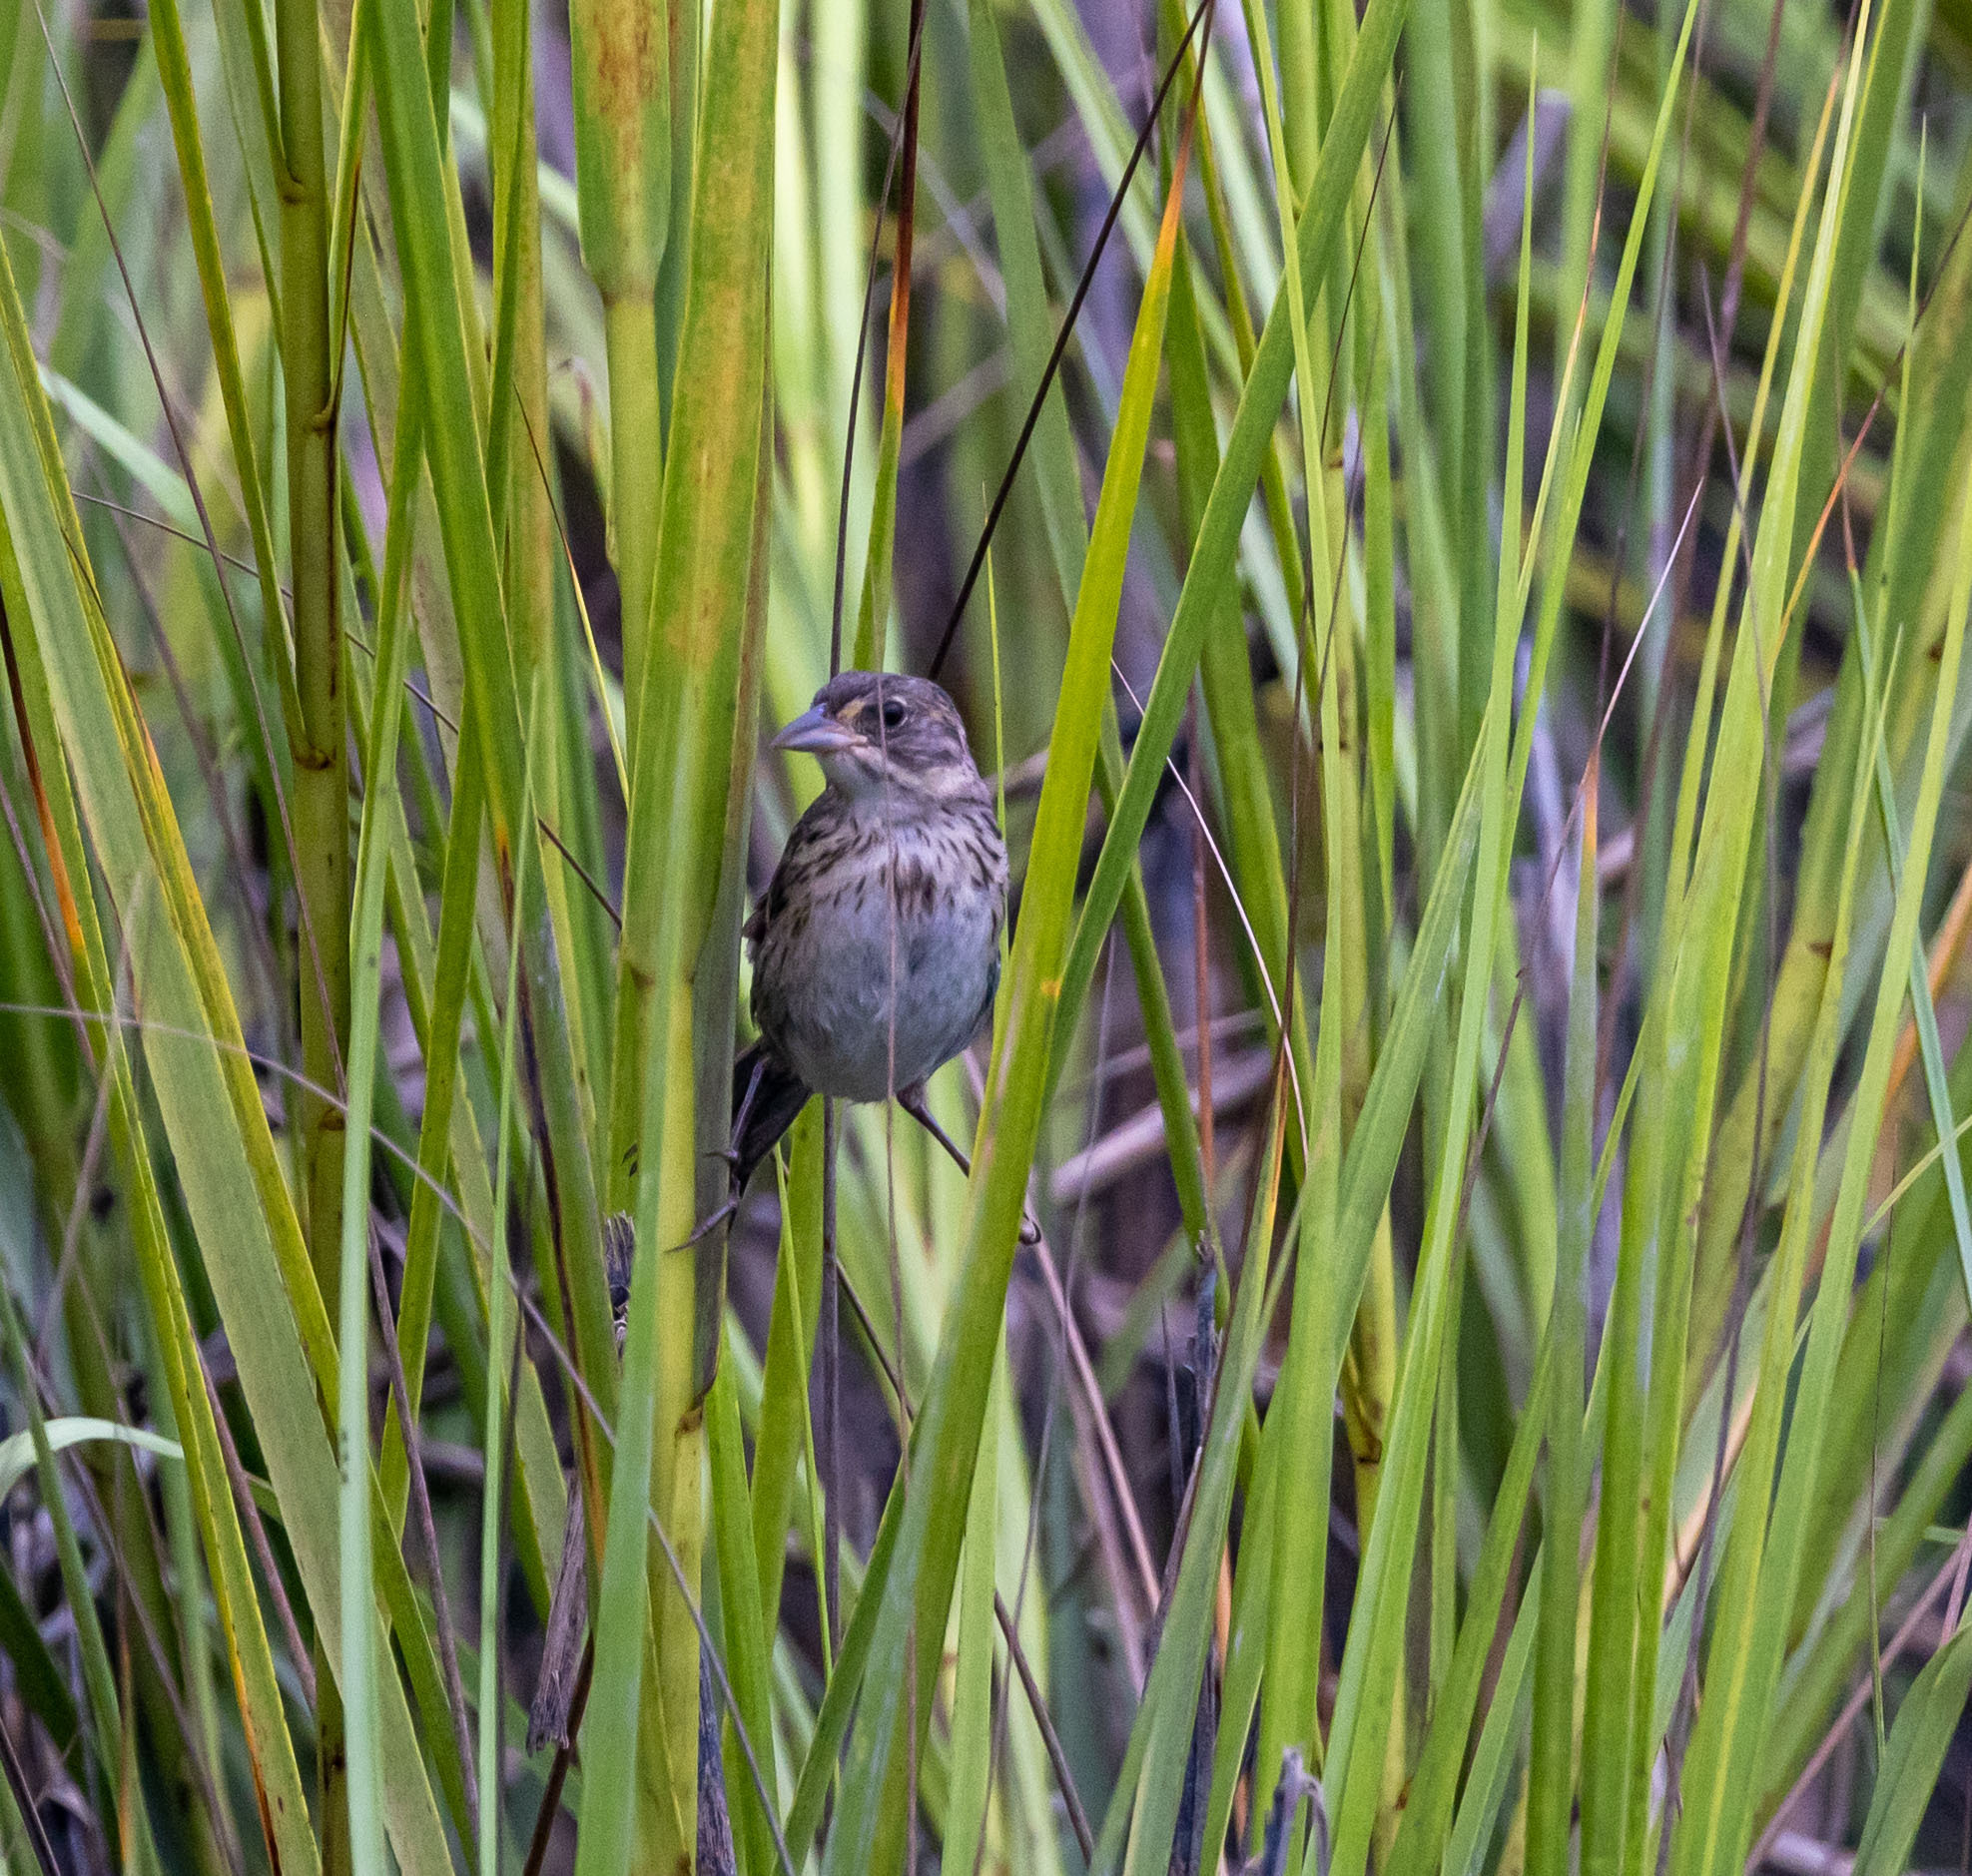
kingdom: Animalia
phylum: Chordata
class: Aves
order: Passeriformes
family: Passerellidae
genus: Ammospiza
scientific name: Ammospiza maritima
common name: Seaside sparrow
